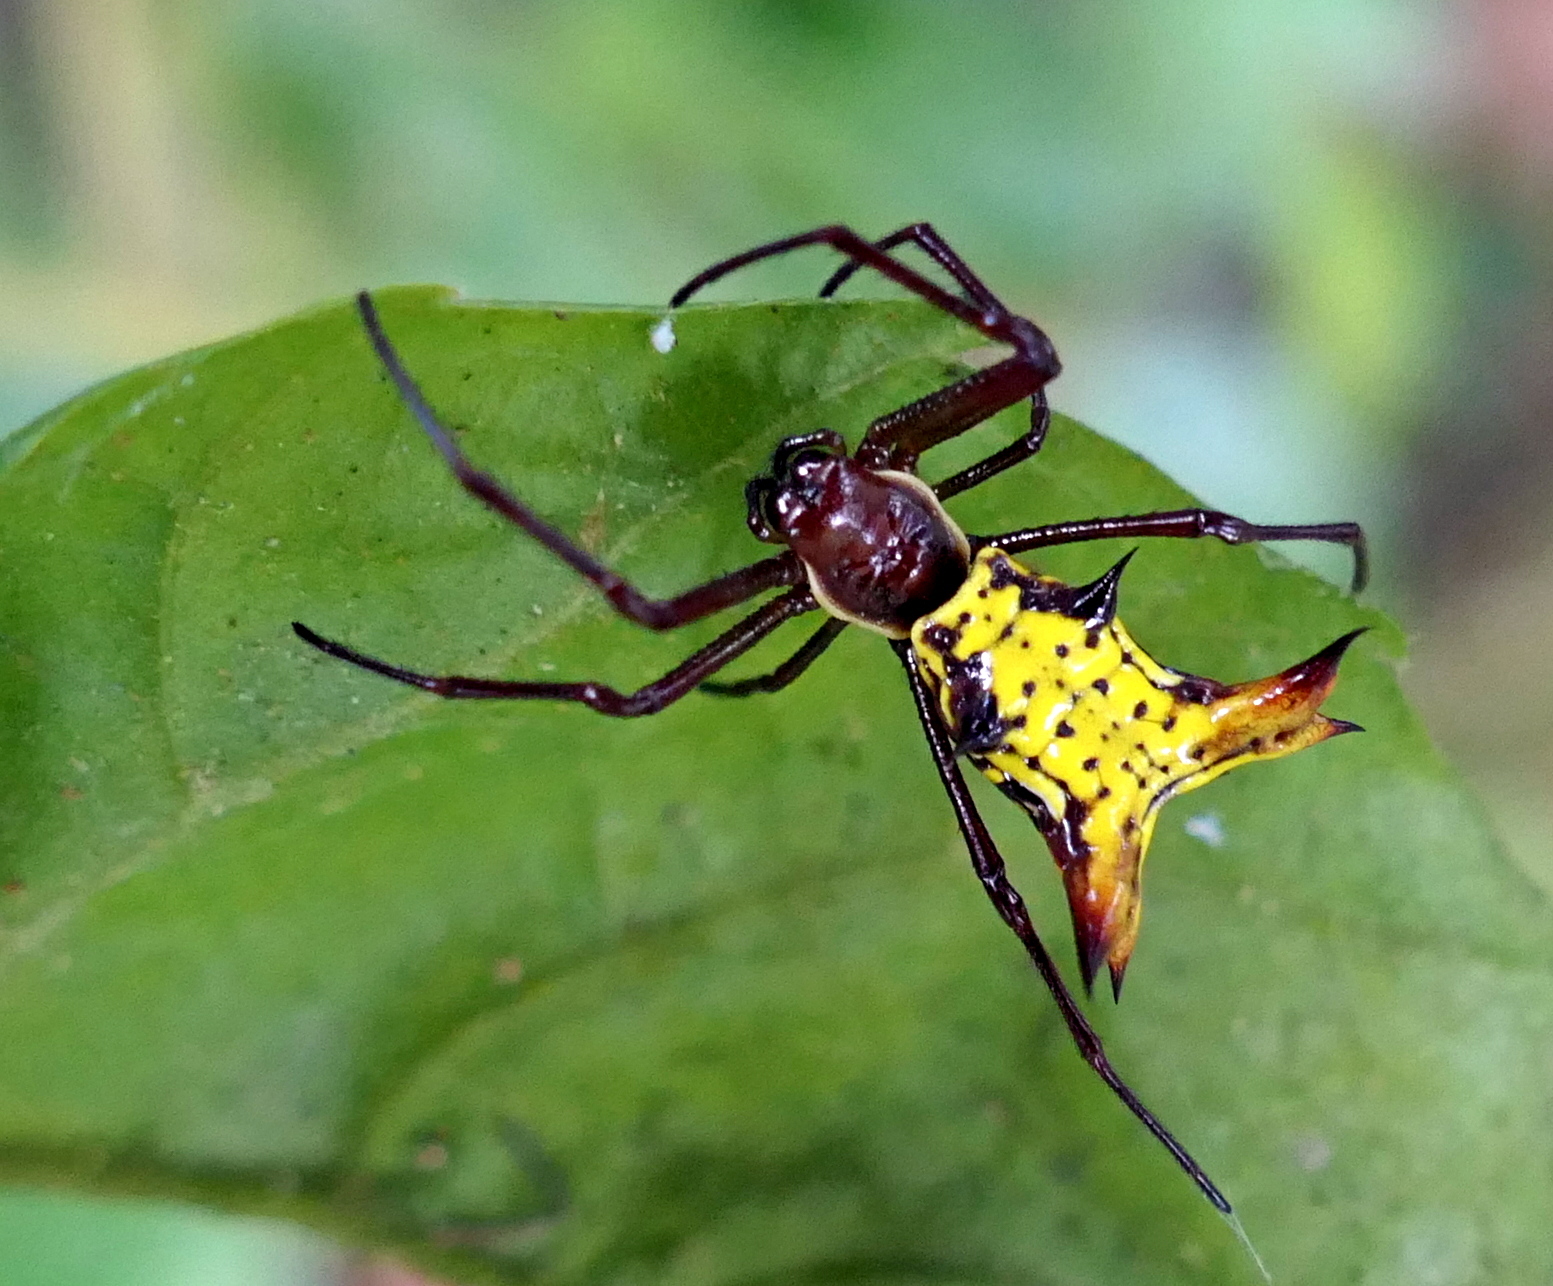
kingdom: Animalia
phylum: Arthropoda
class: Arachnida
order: Araneae
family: Araneidae
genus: Micrathena
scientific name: Micrathena fissispina
